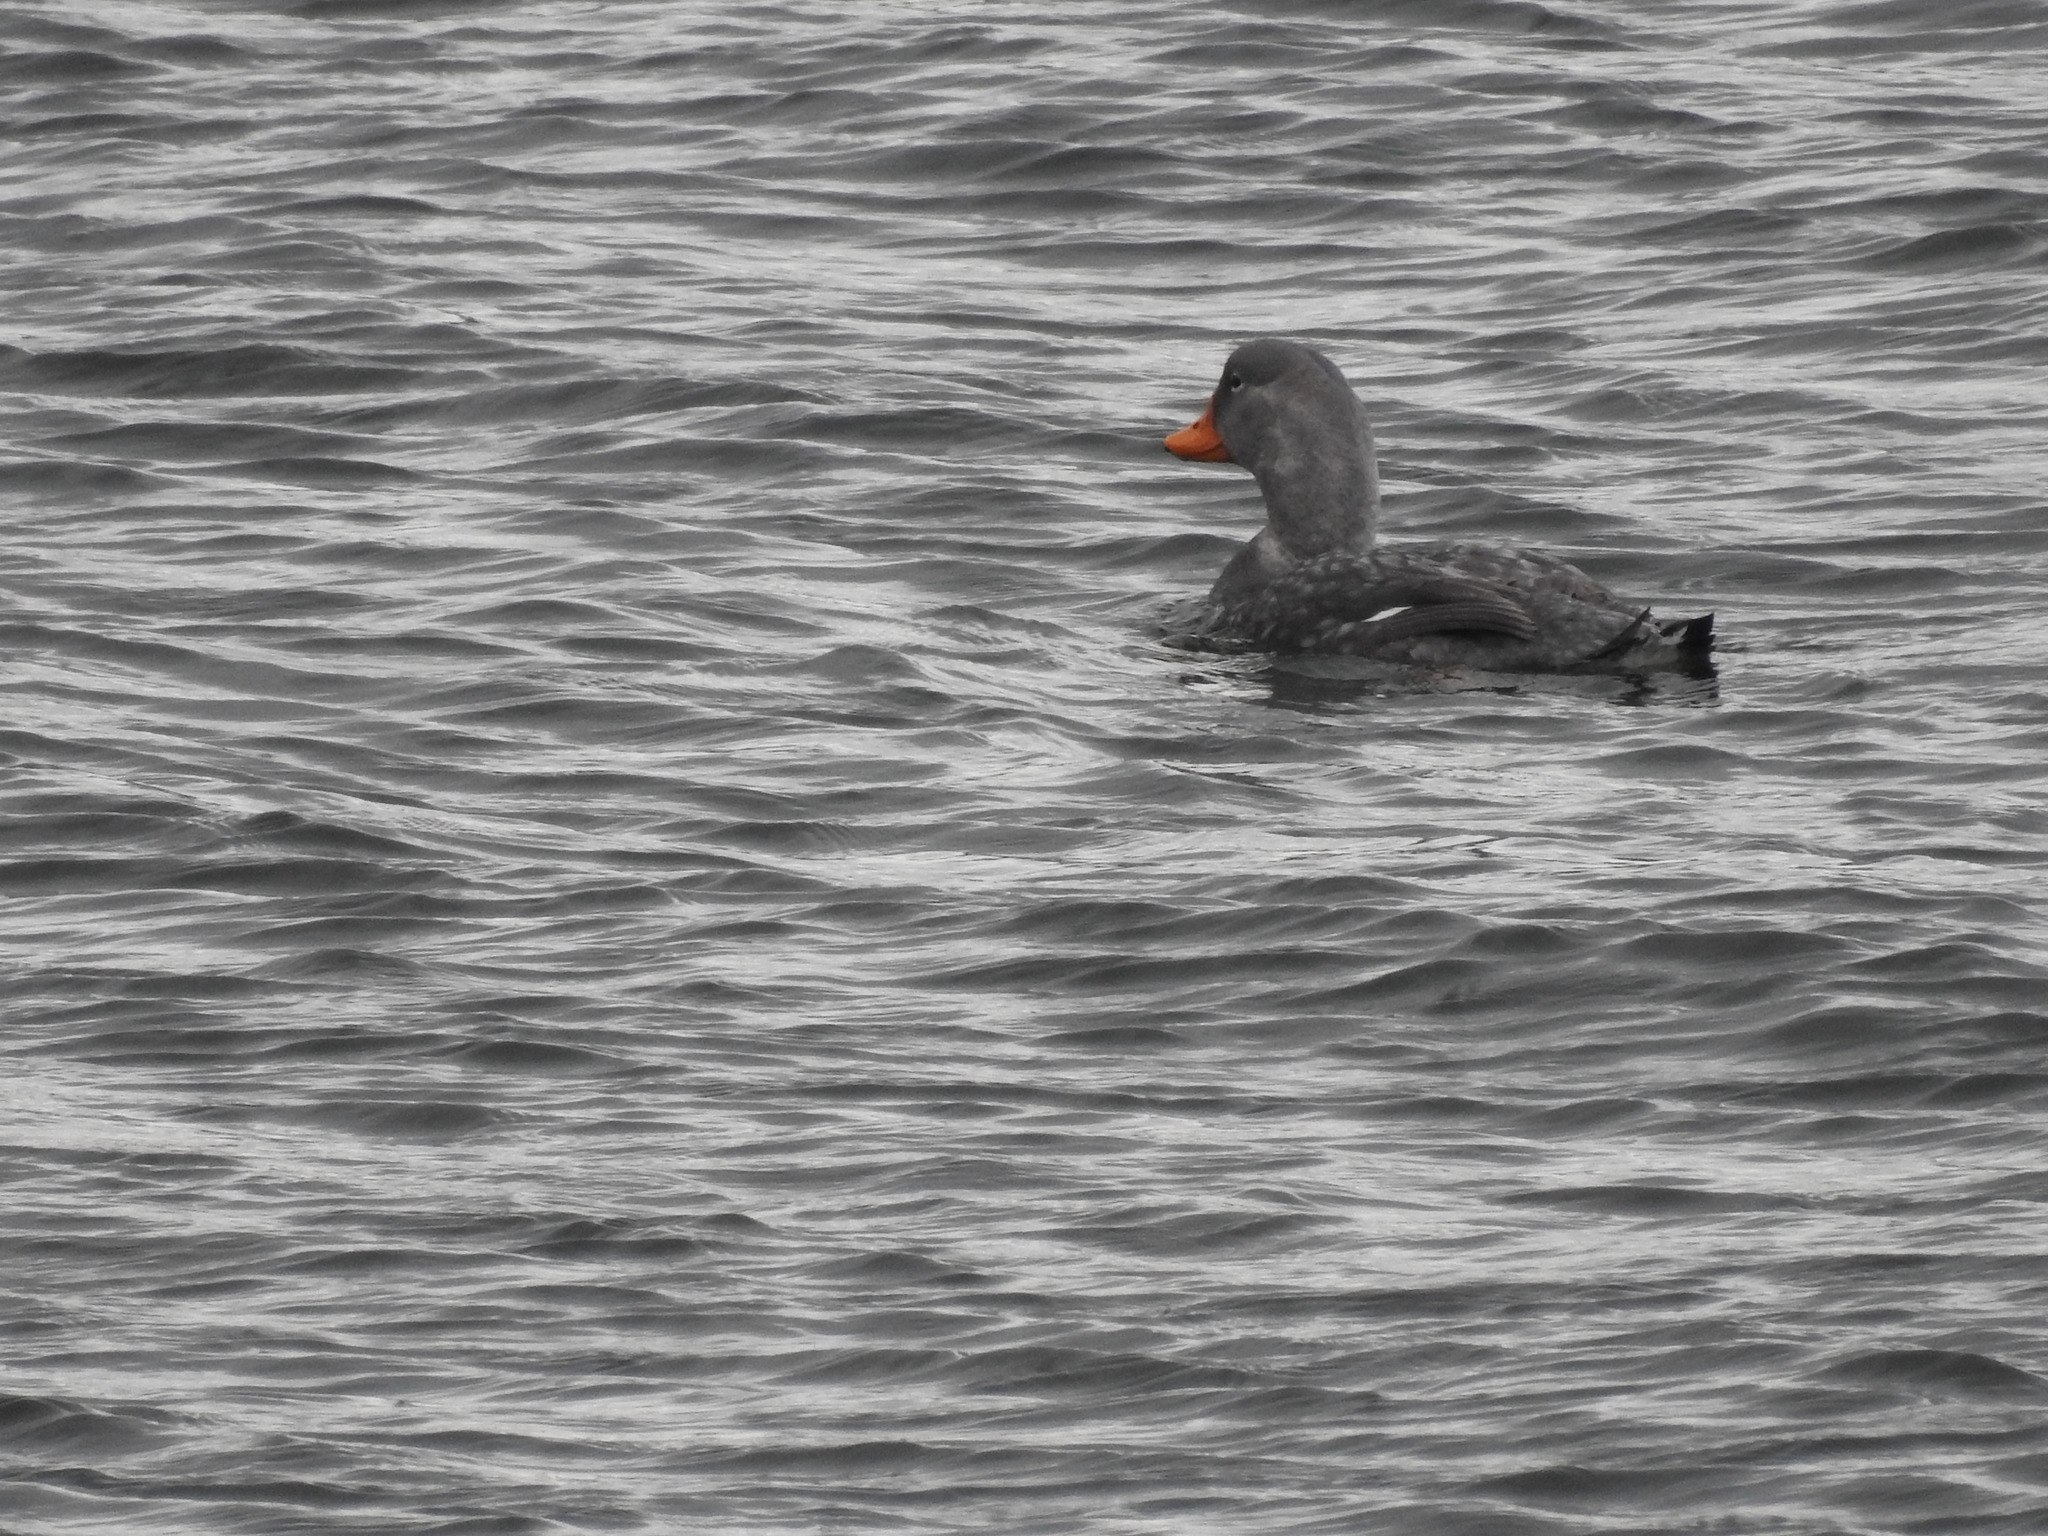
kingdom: Animalia
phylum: Chordata
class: Aves
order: Anseriformes
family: Anatidae
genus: Tachyeres
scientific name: Tachyeres pteneres
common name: Fuegian steamer duck
